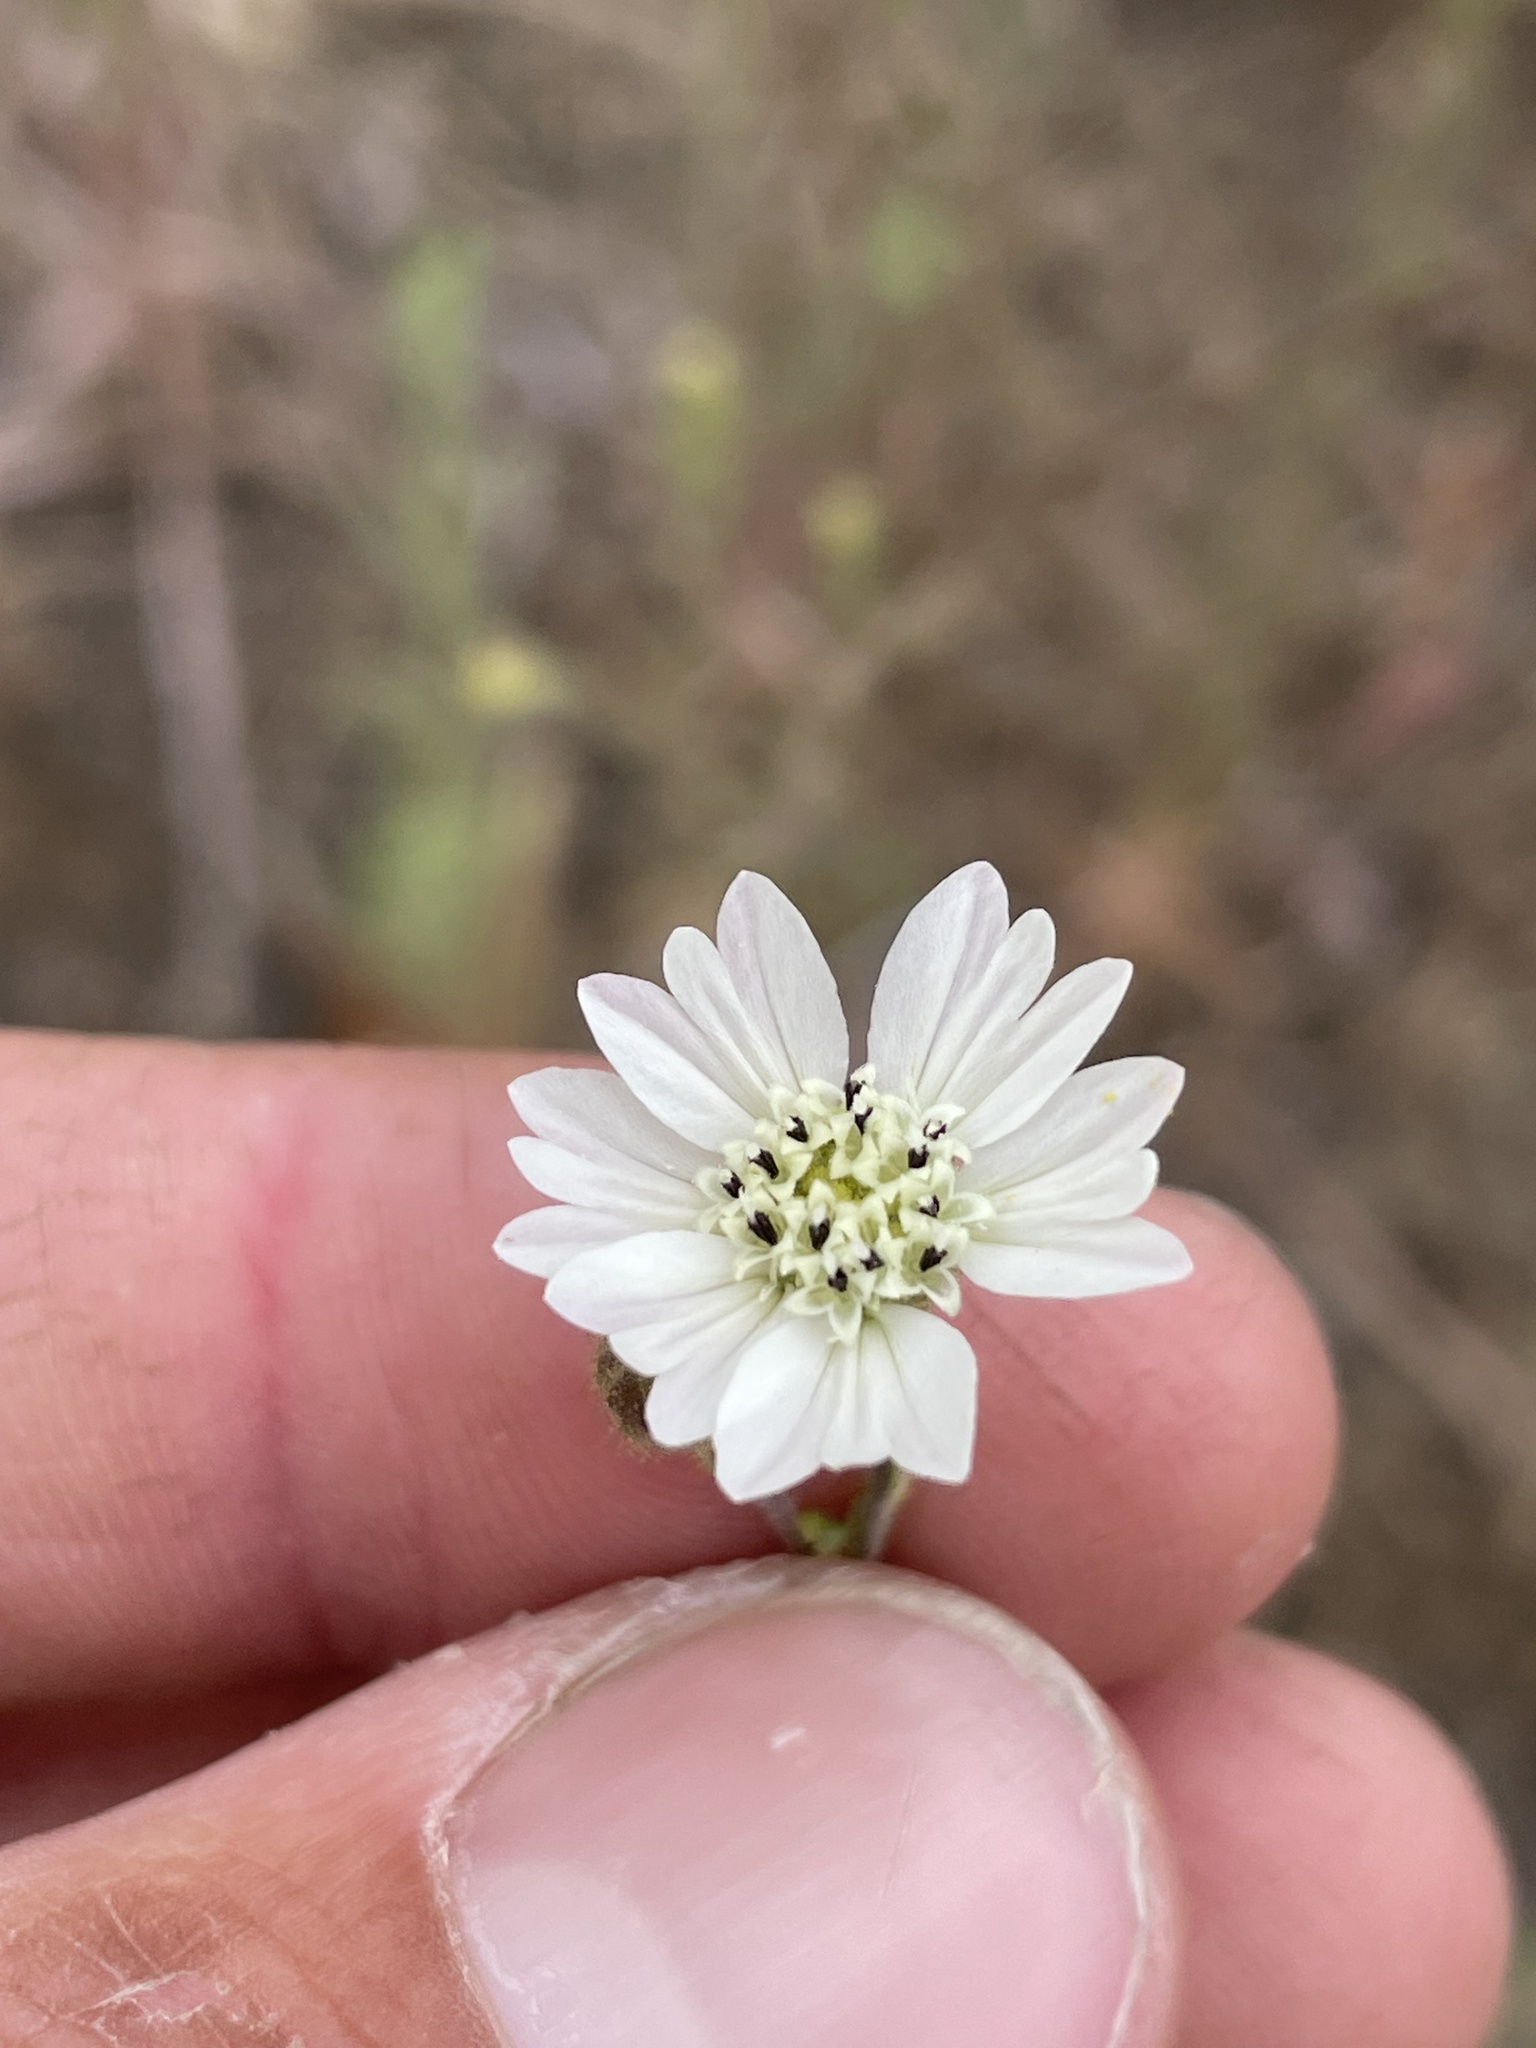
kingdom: Plantae
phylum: Tracheophyta
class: Magnoliopsida
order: Asterales
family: Asteraceae
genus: Hemizonia
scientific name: Hemizonia congesta
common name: Hayfield tarweed
